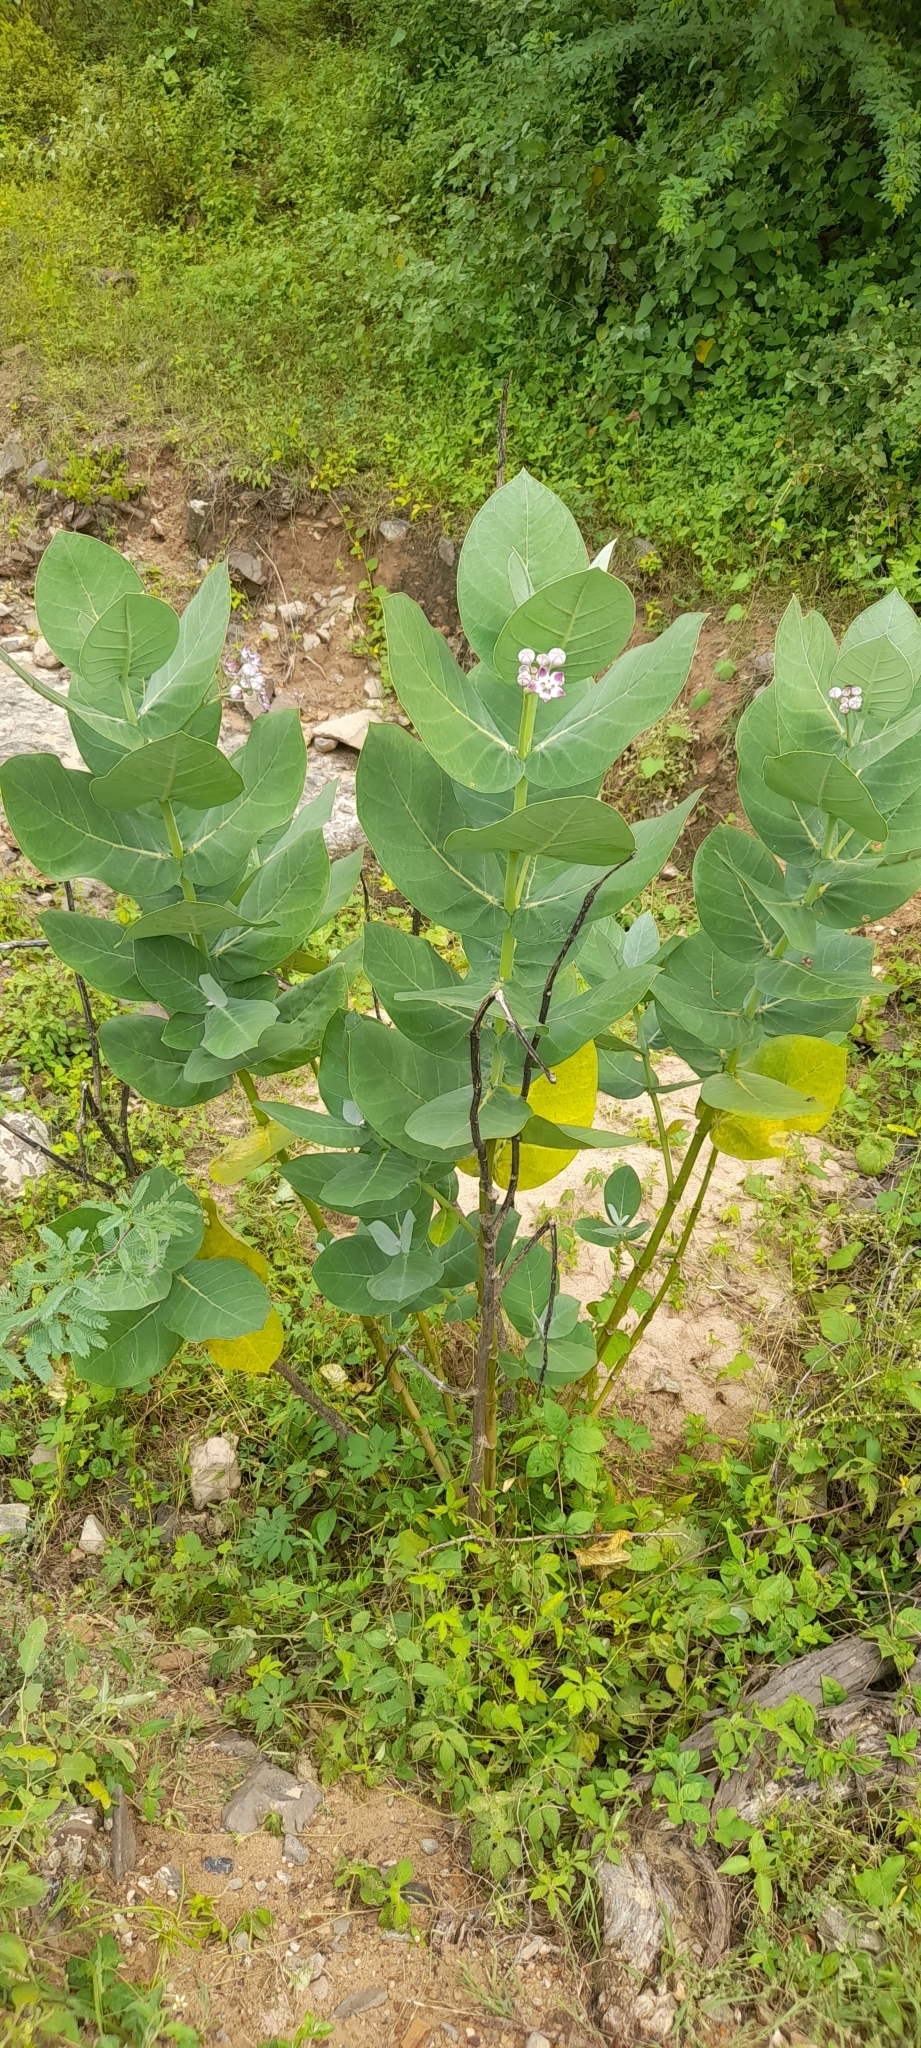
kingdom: Plantae
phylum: Tracheophyta
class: Magnoliopsida
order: Gentianales
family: Apocynaceae
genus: Calotropis
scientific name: Calotropis procera
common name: Roostertree
